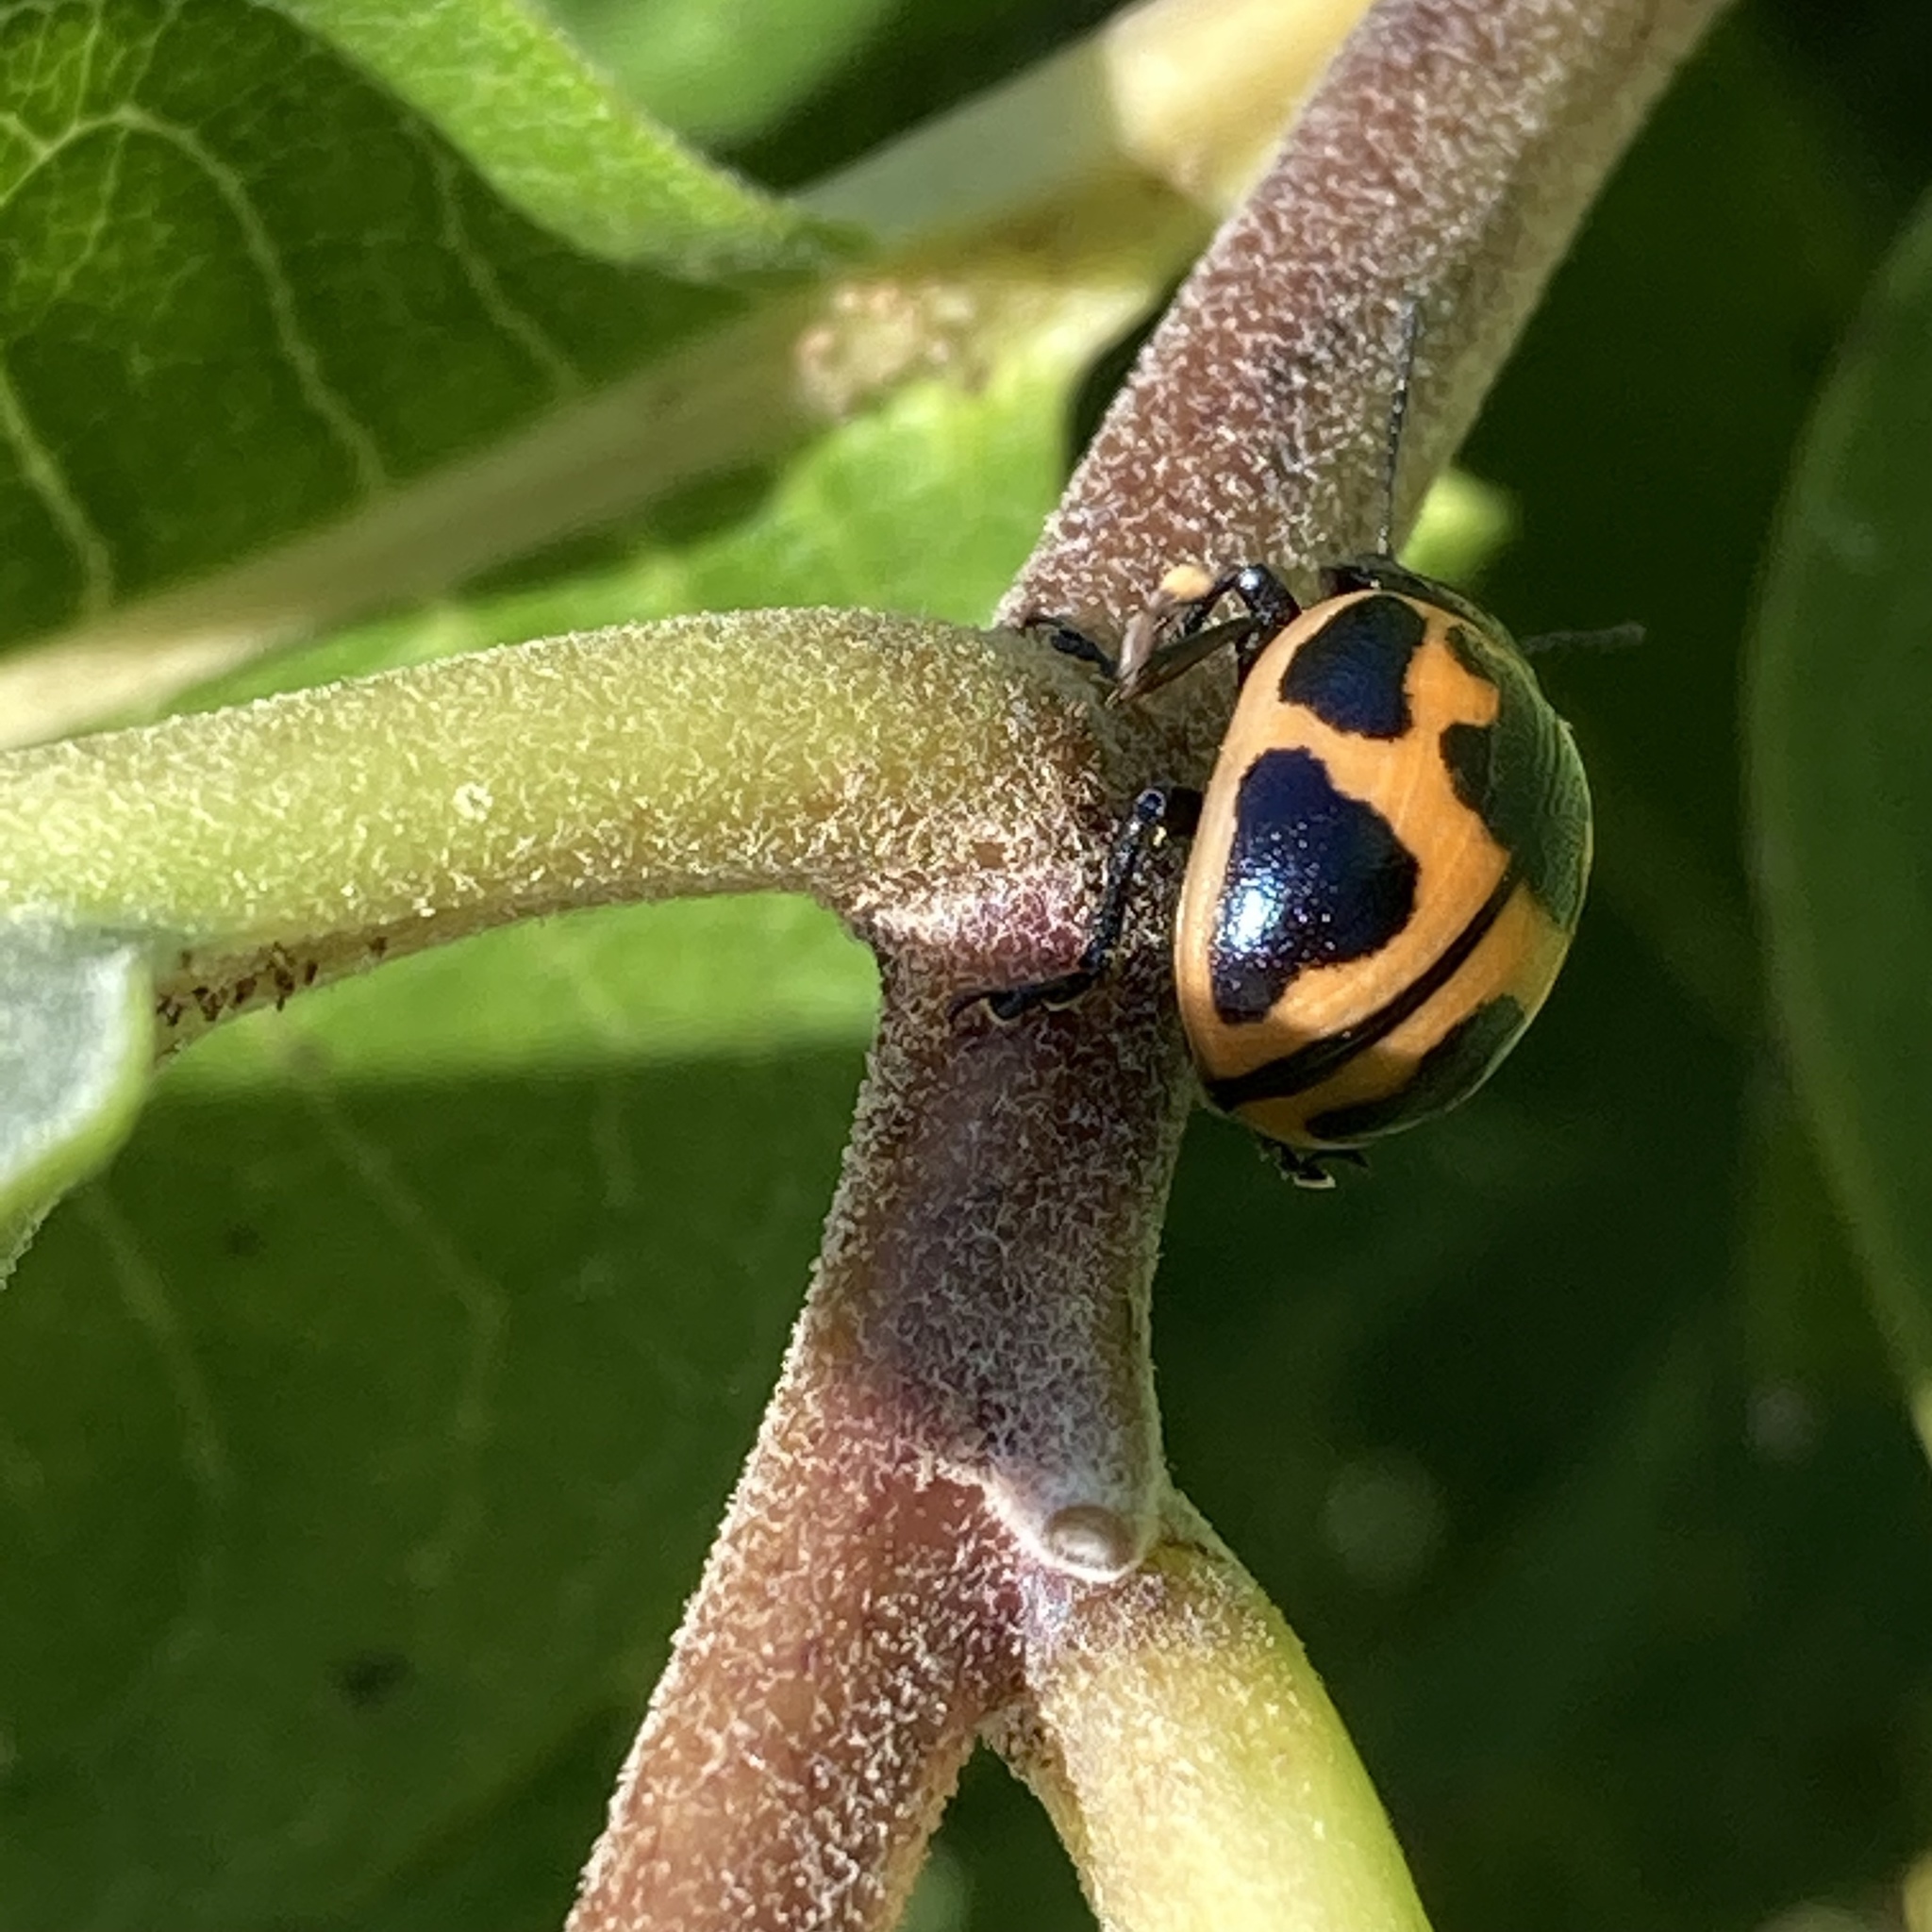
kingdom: Animalia
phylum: Arthropoda
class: Insecta
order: Coleoptera
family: Chrysomelidae
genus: Labidomera
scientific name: Labidomera clivicollis
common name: Swamp milkweed leaf beetle
